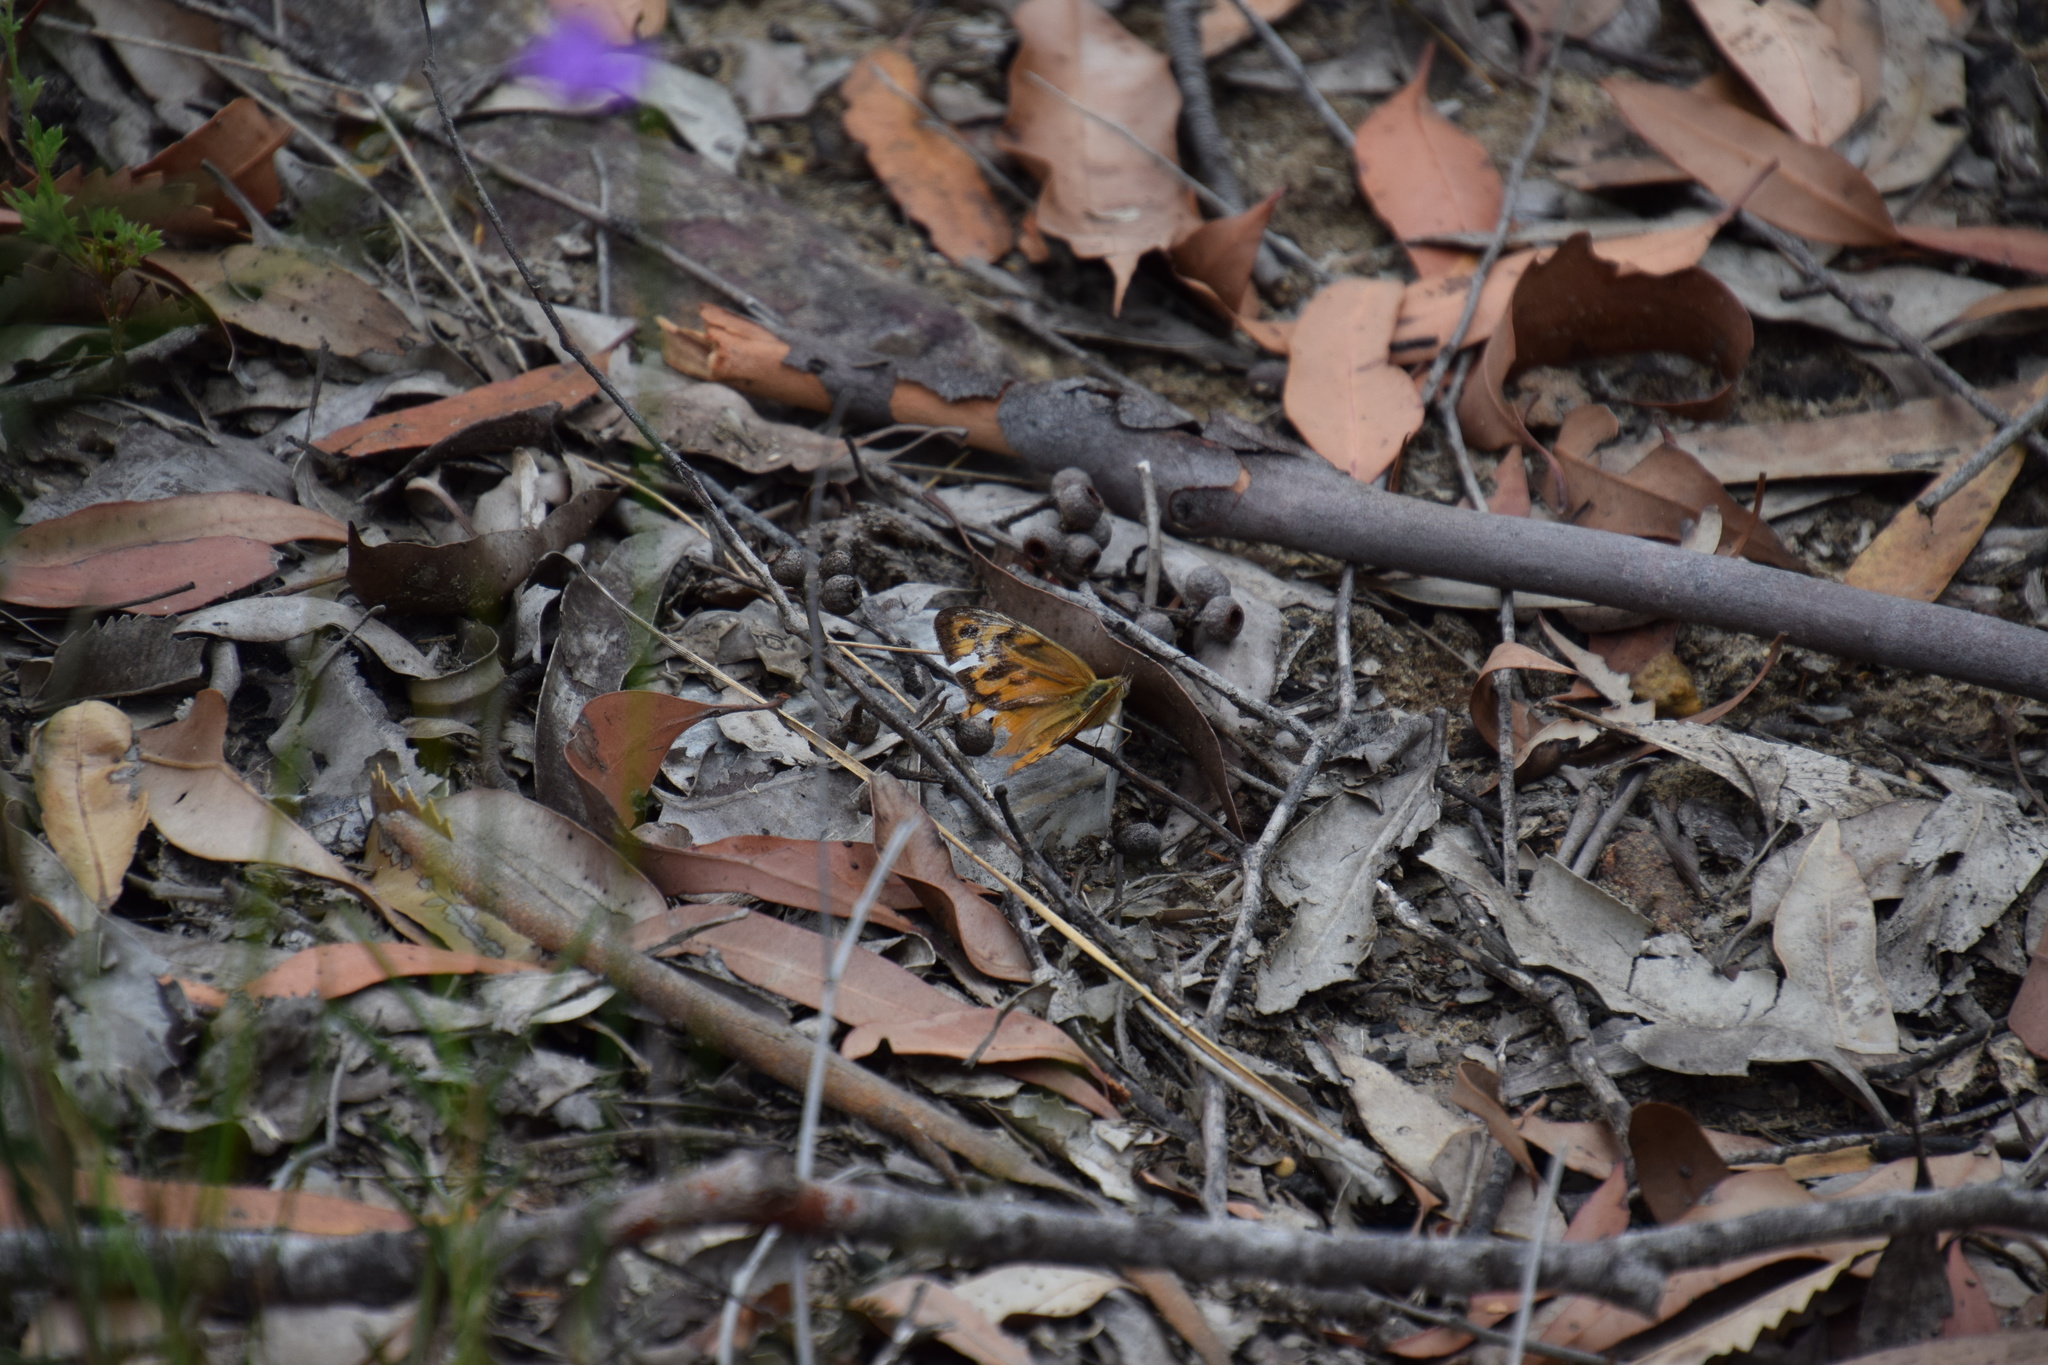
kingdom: Animalia
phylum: Arthropoda
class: Insecta
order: Lepidoptera
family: Nymphalidae
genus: Heteronympha
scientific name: Heteronympha merope
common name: Common brown
